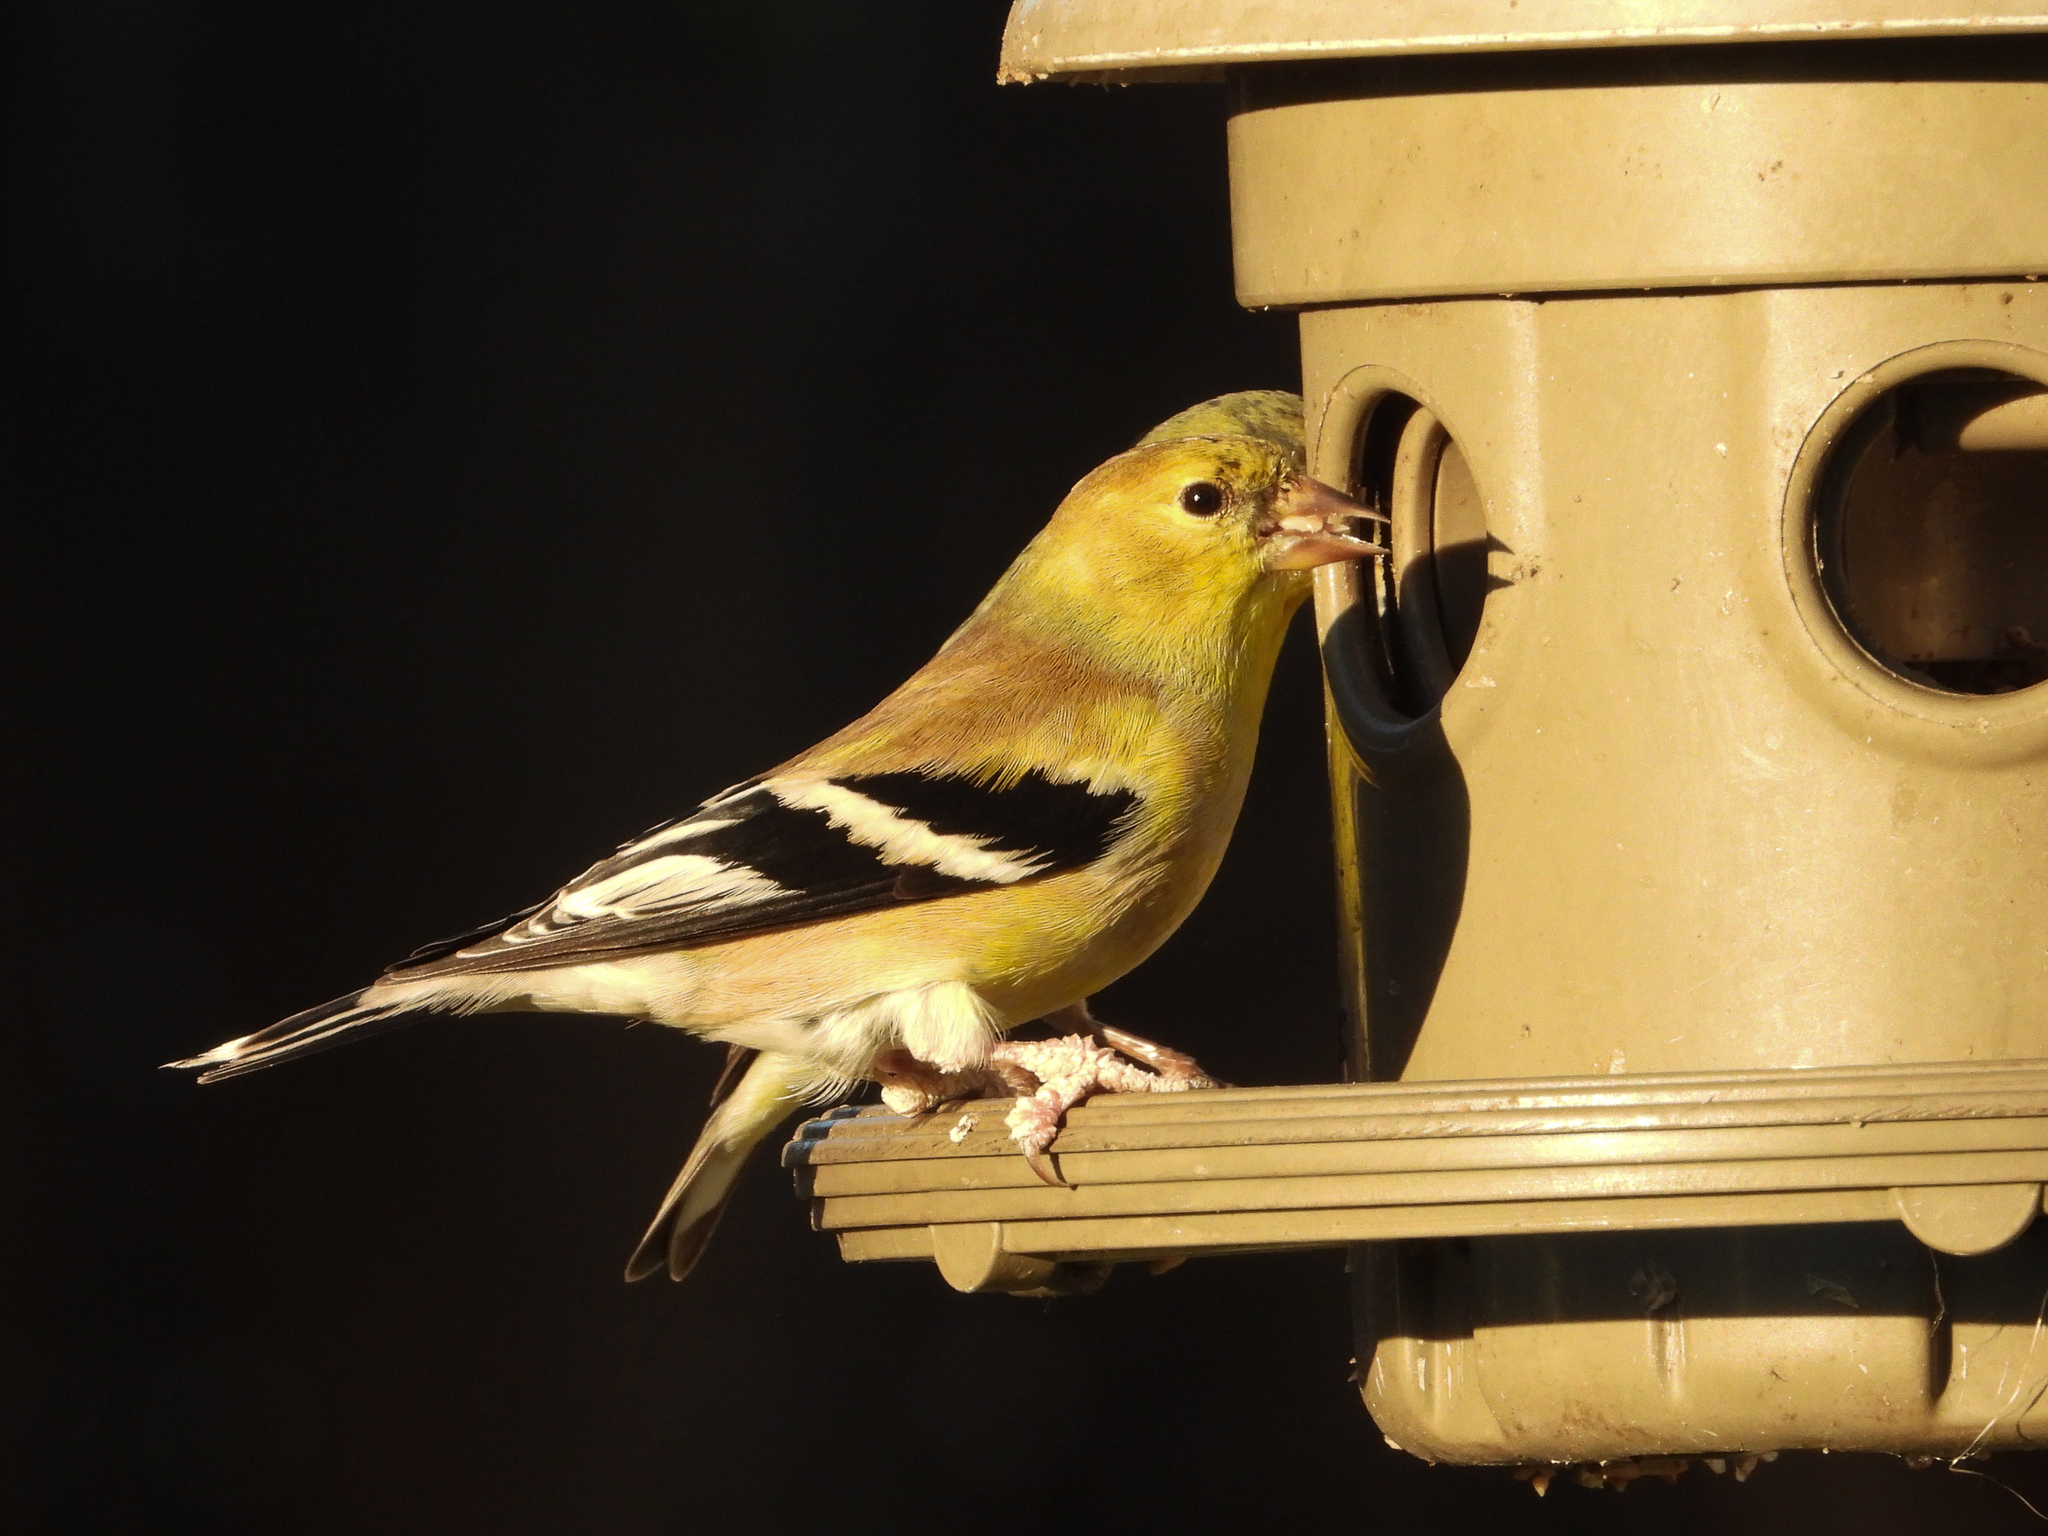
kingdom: Animalia
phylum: Chordata
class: Aves
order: Passeriformes
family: Fringillidae
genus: Spinus
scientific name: Spinus tristis
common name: American goldfinch
